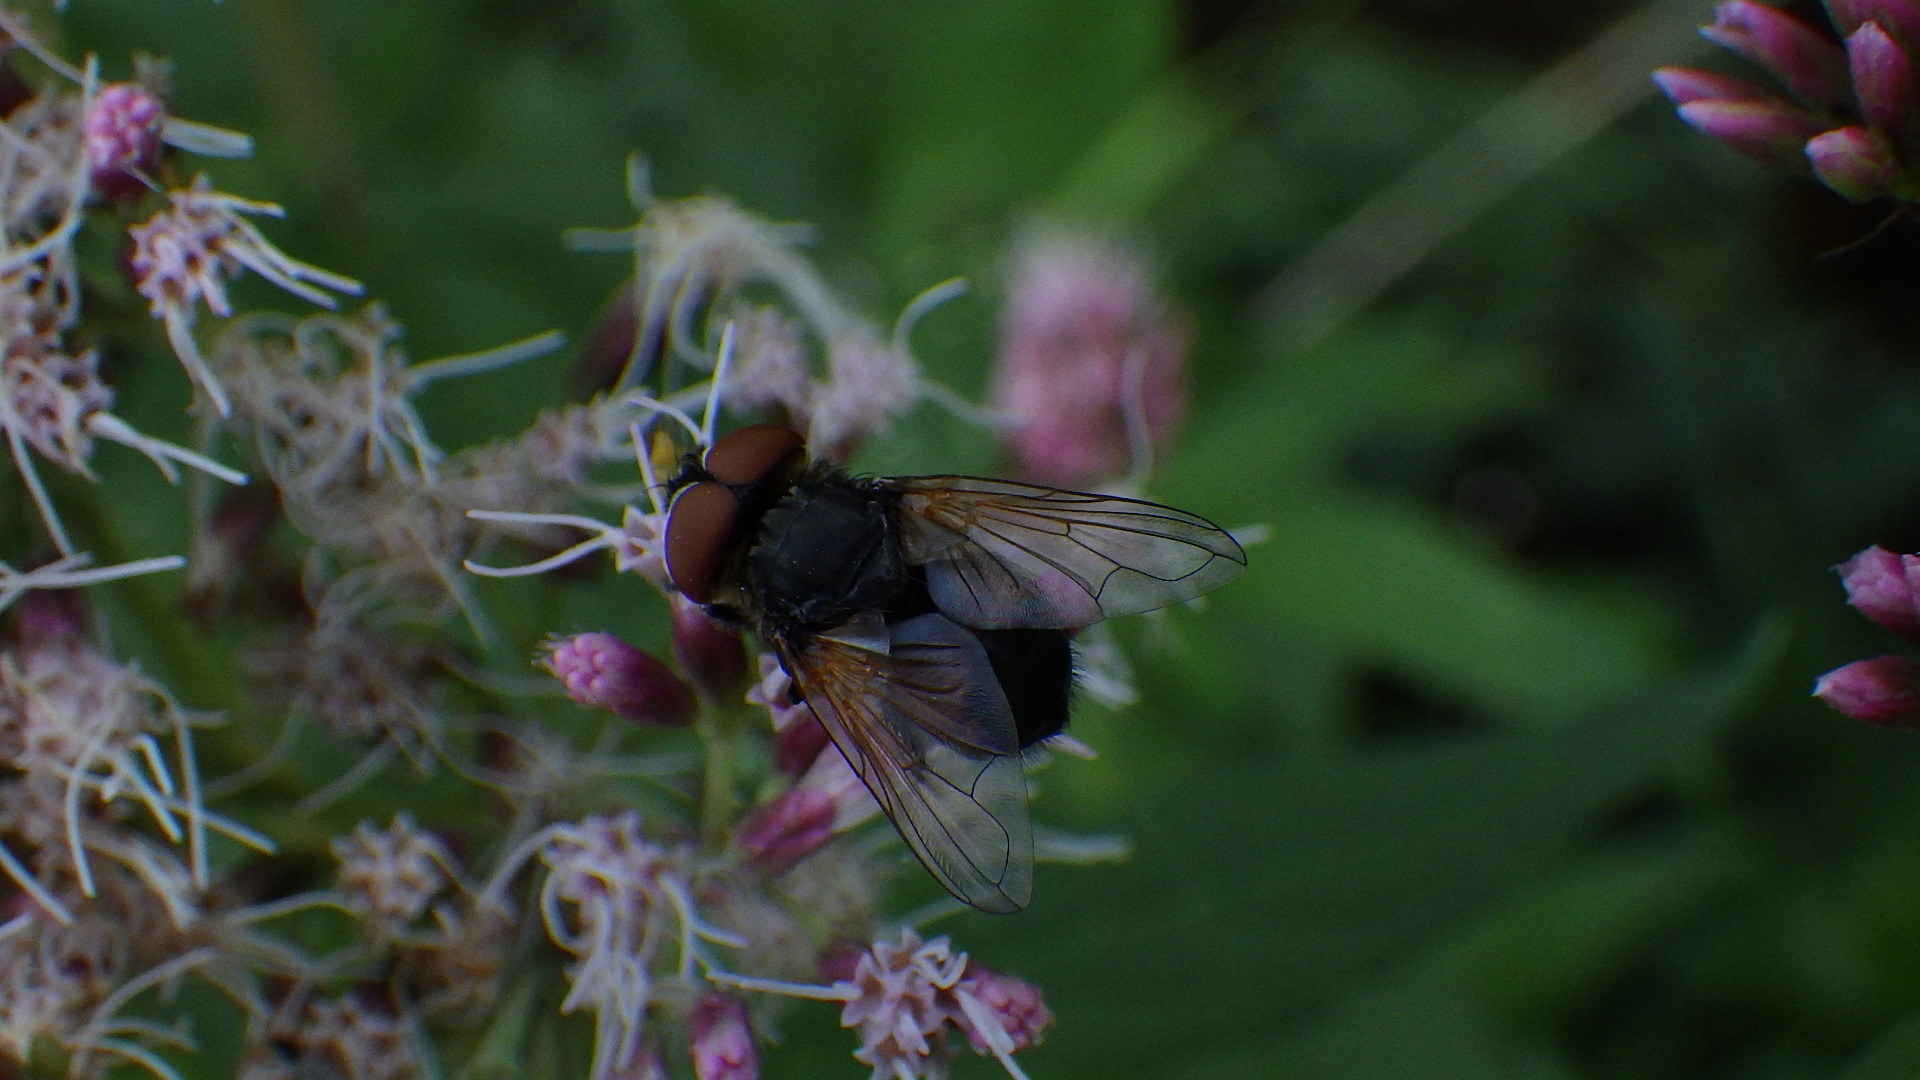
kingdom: Animalia
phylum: Arthropoda
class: Insecta
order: Diptera
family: Tachinidae
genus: Phasia
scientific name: Phasia aurigera
